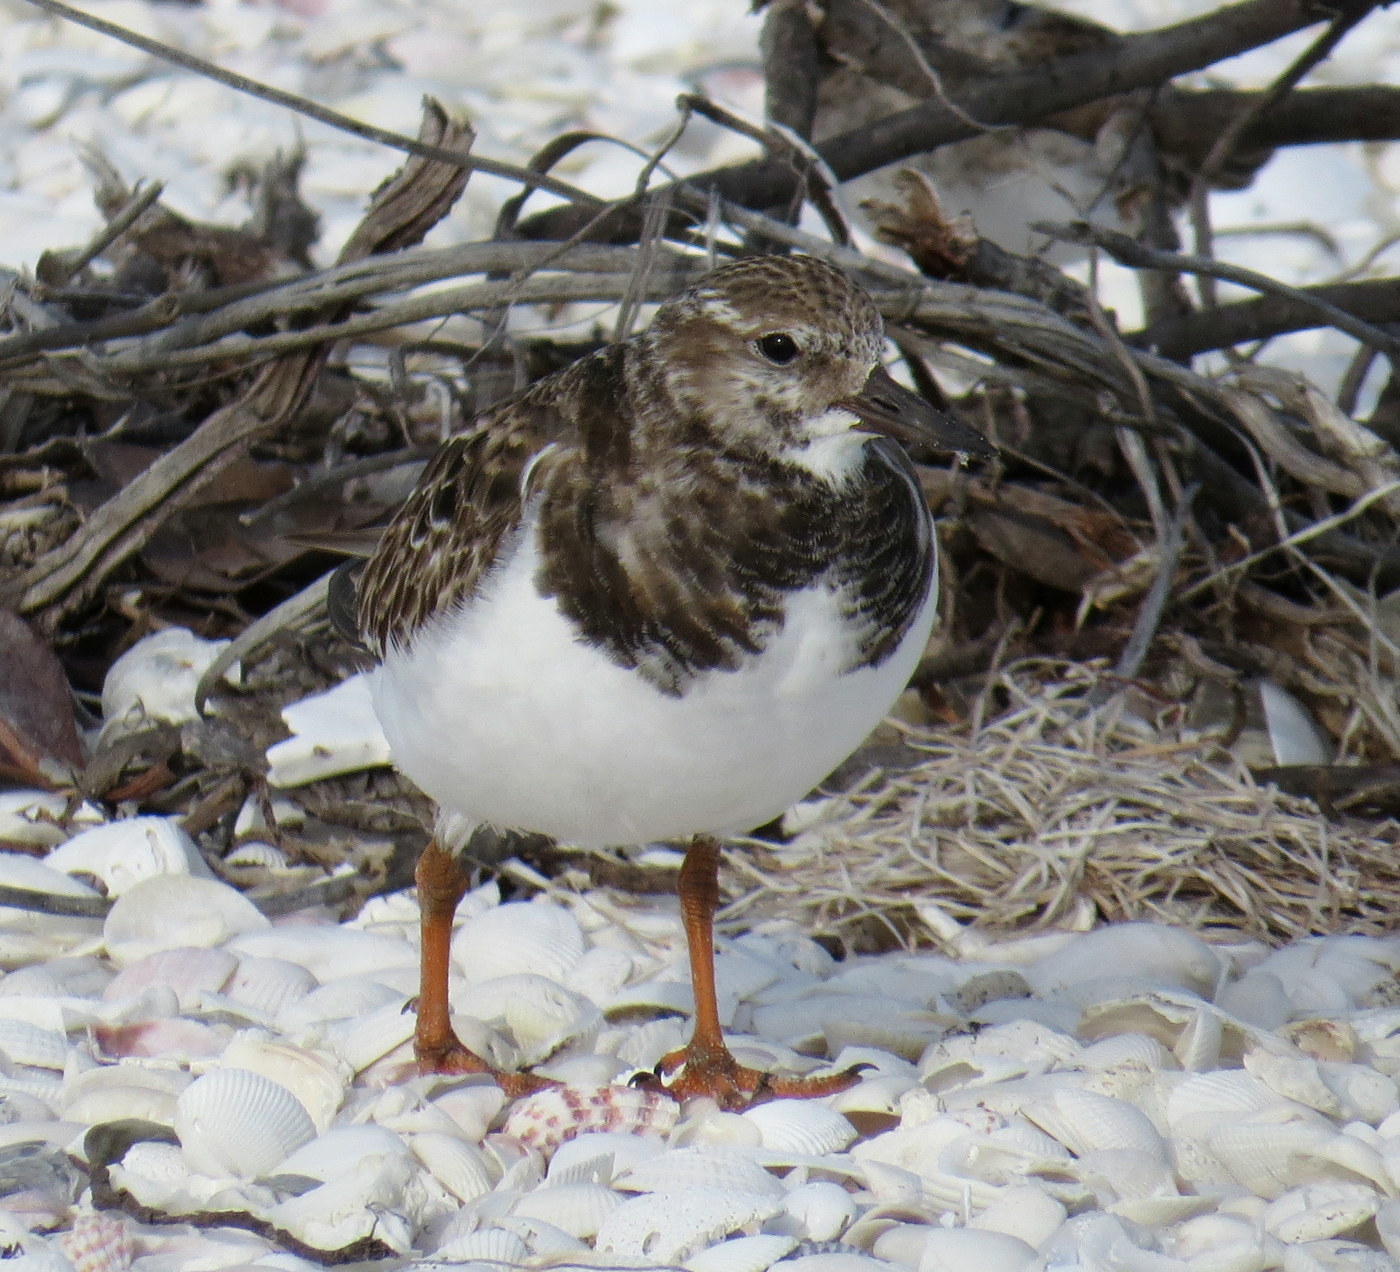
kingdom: Animalia
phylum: Chordata
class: Aves
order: Charadriiformes
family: Scolopacidae
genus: Arenaria
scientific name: Arenaria interpres
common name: Ruddy turnstone
